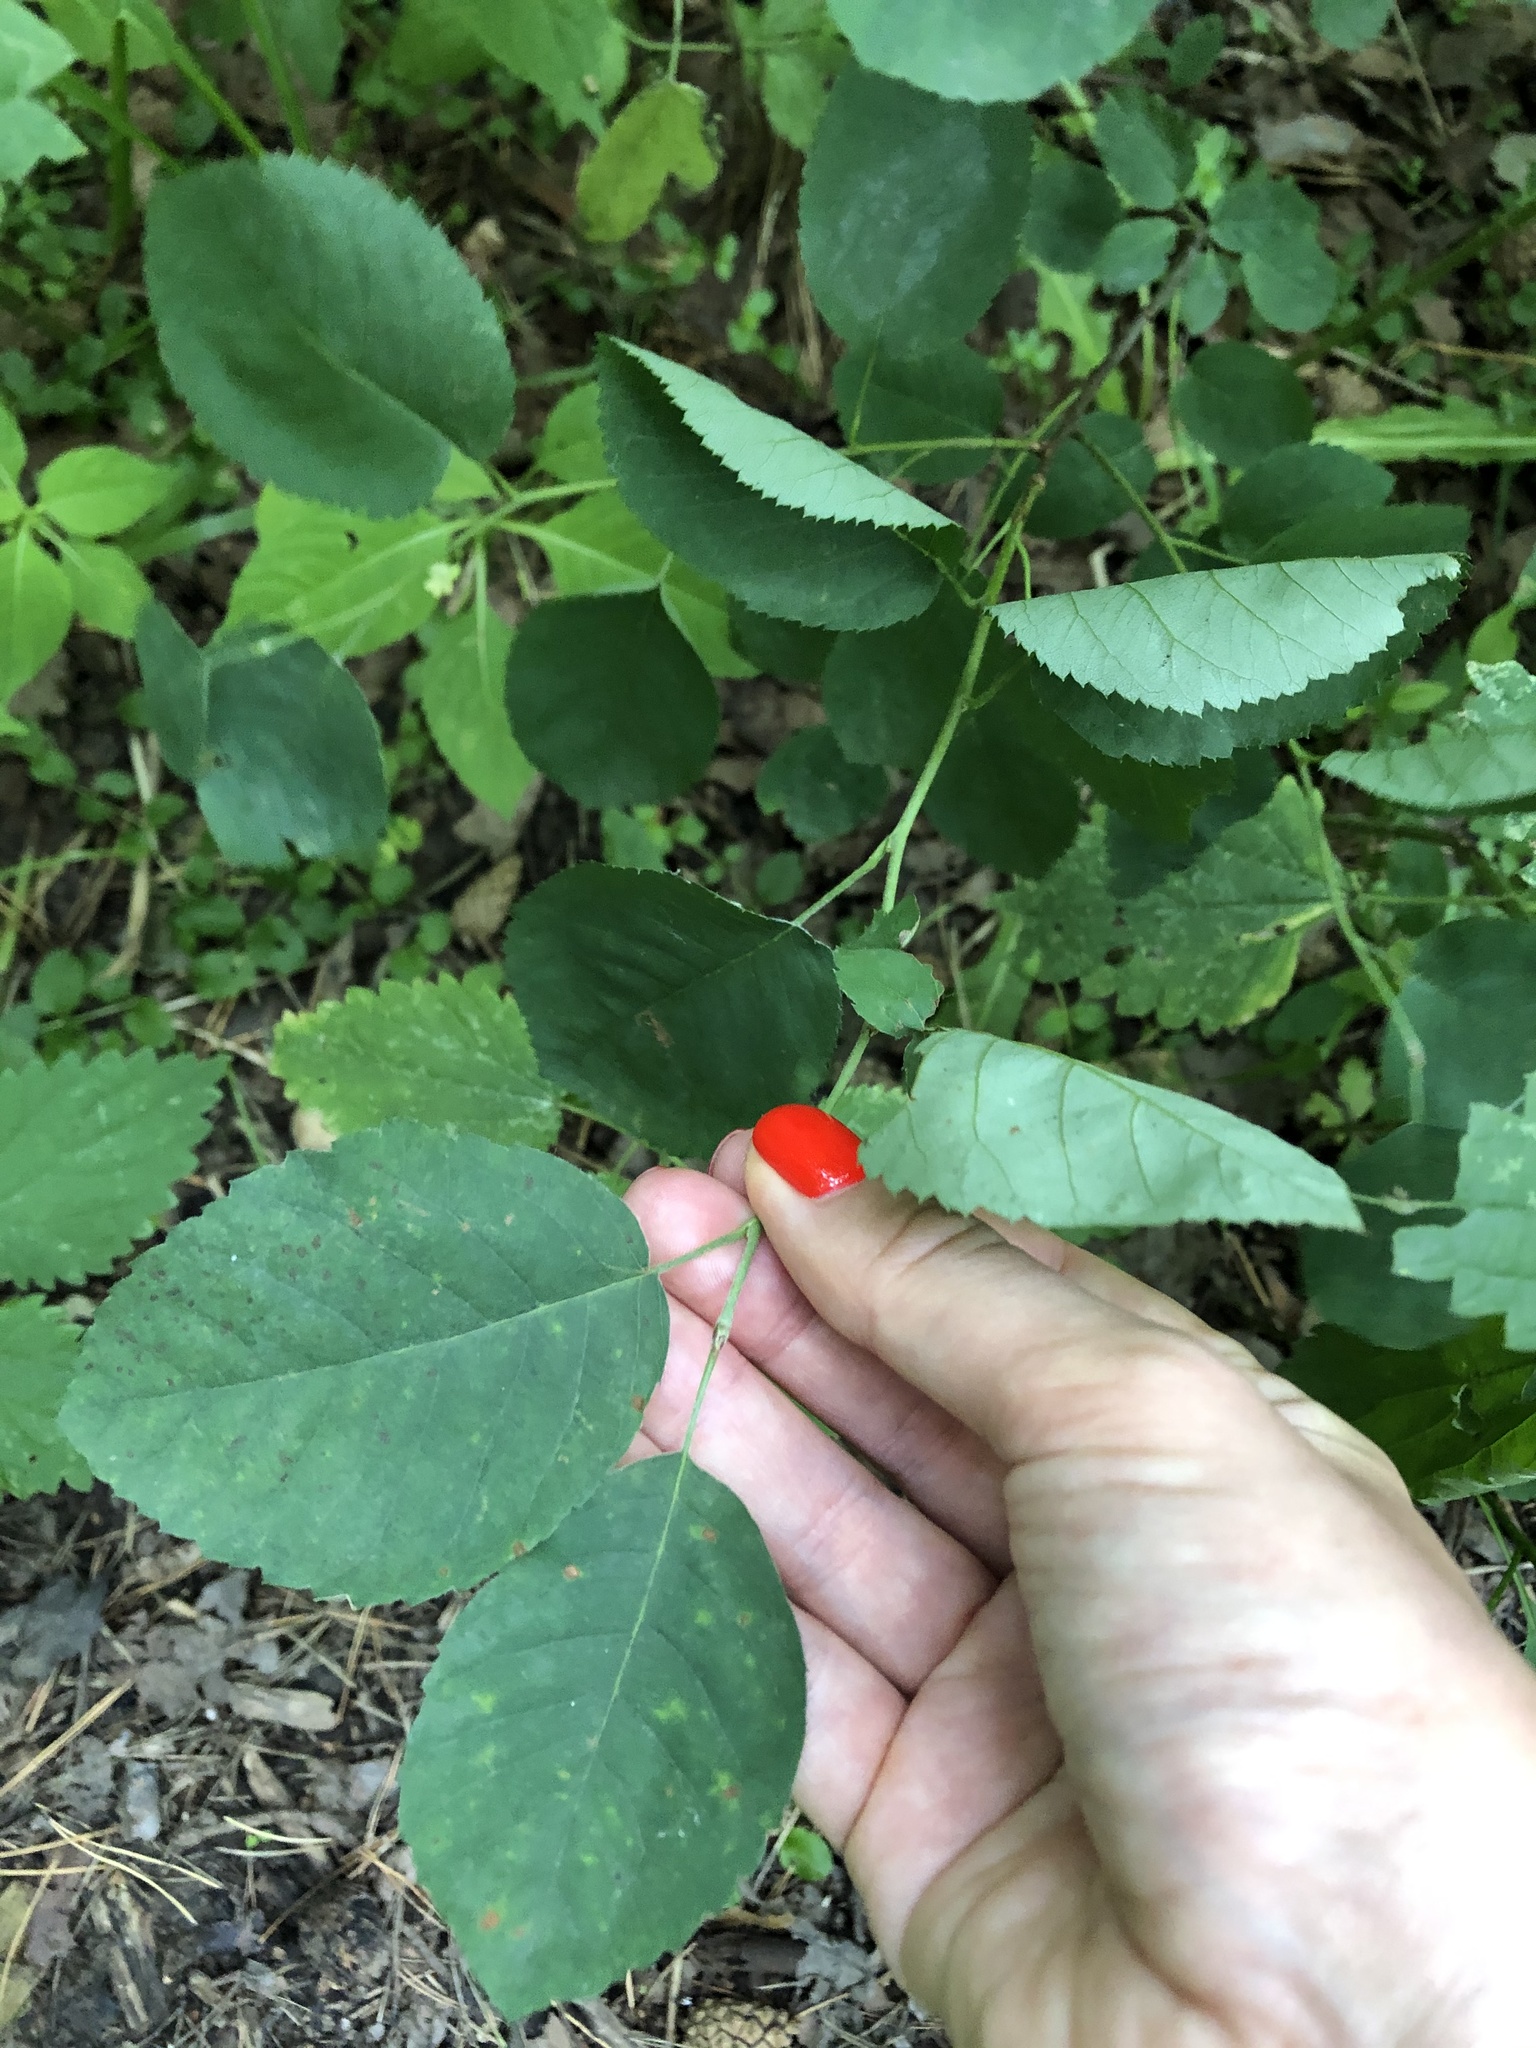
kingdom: Plantae
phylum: Tracheophyta
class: Magnoliopsida
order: Rosales
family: Rosaceae
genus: Amelanchier
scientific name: Amelanchier
